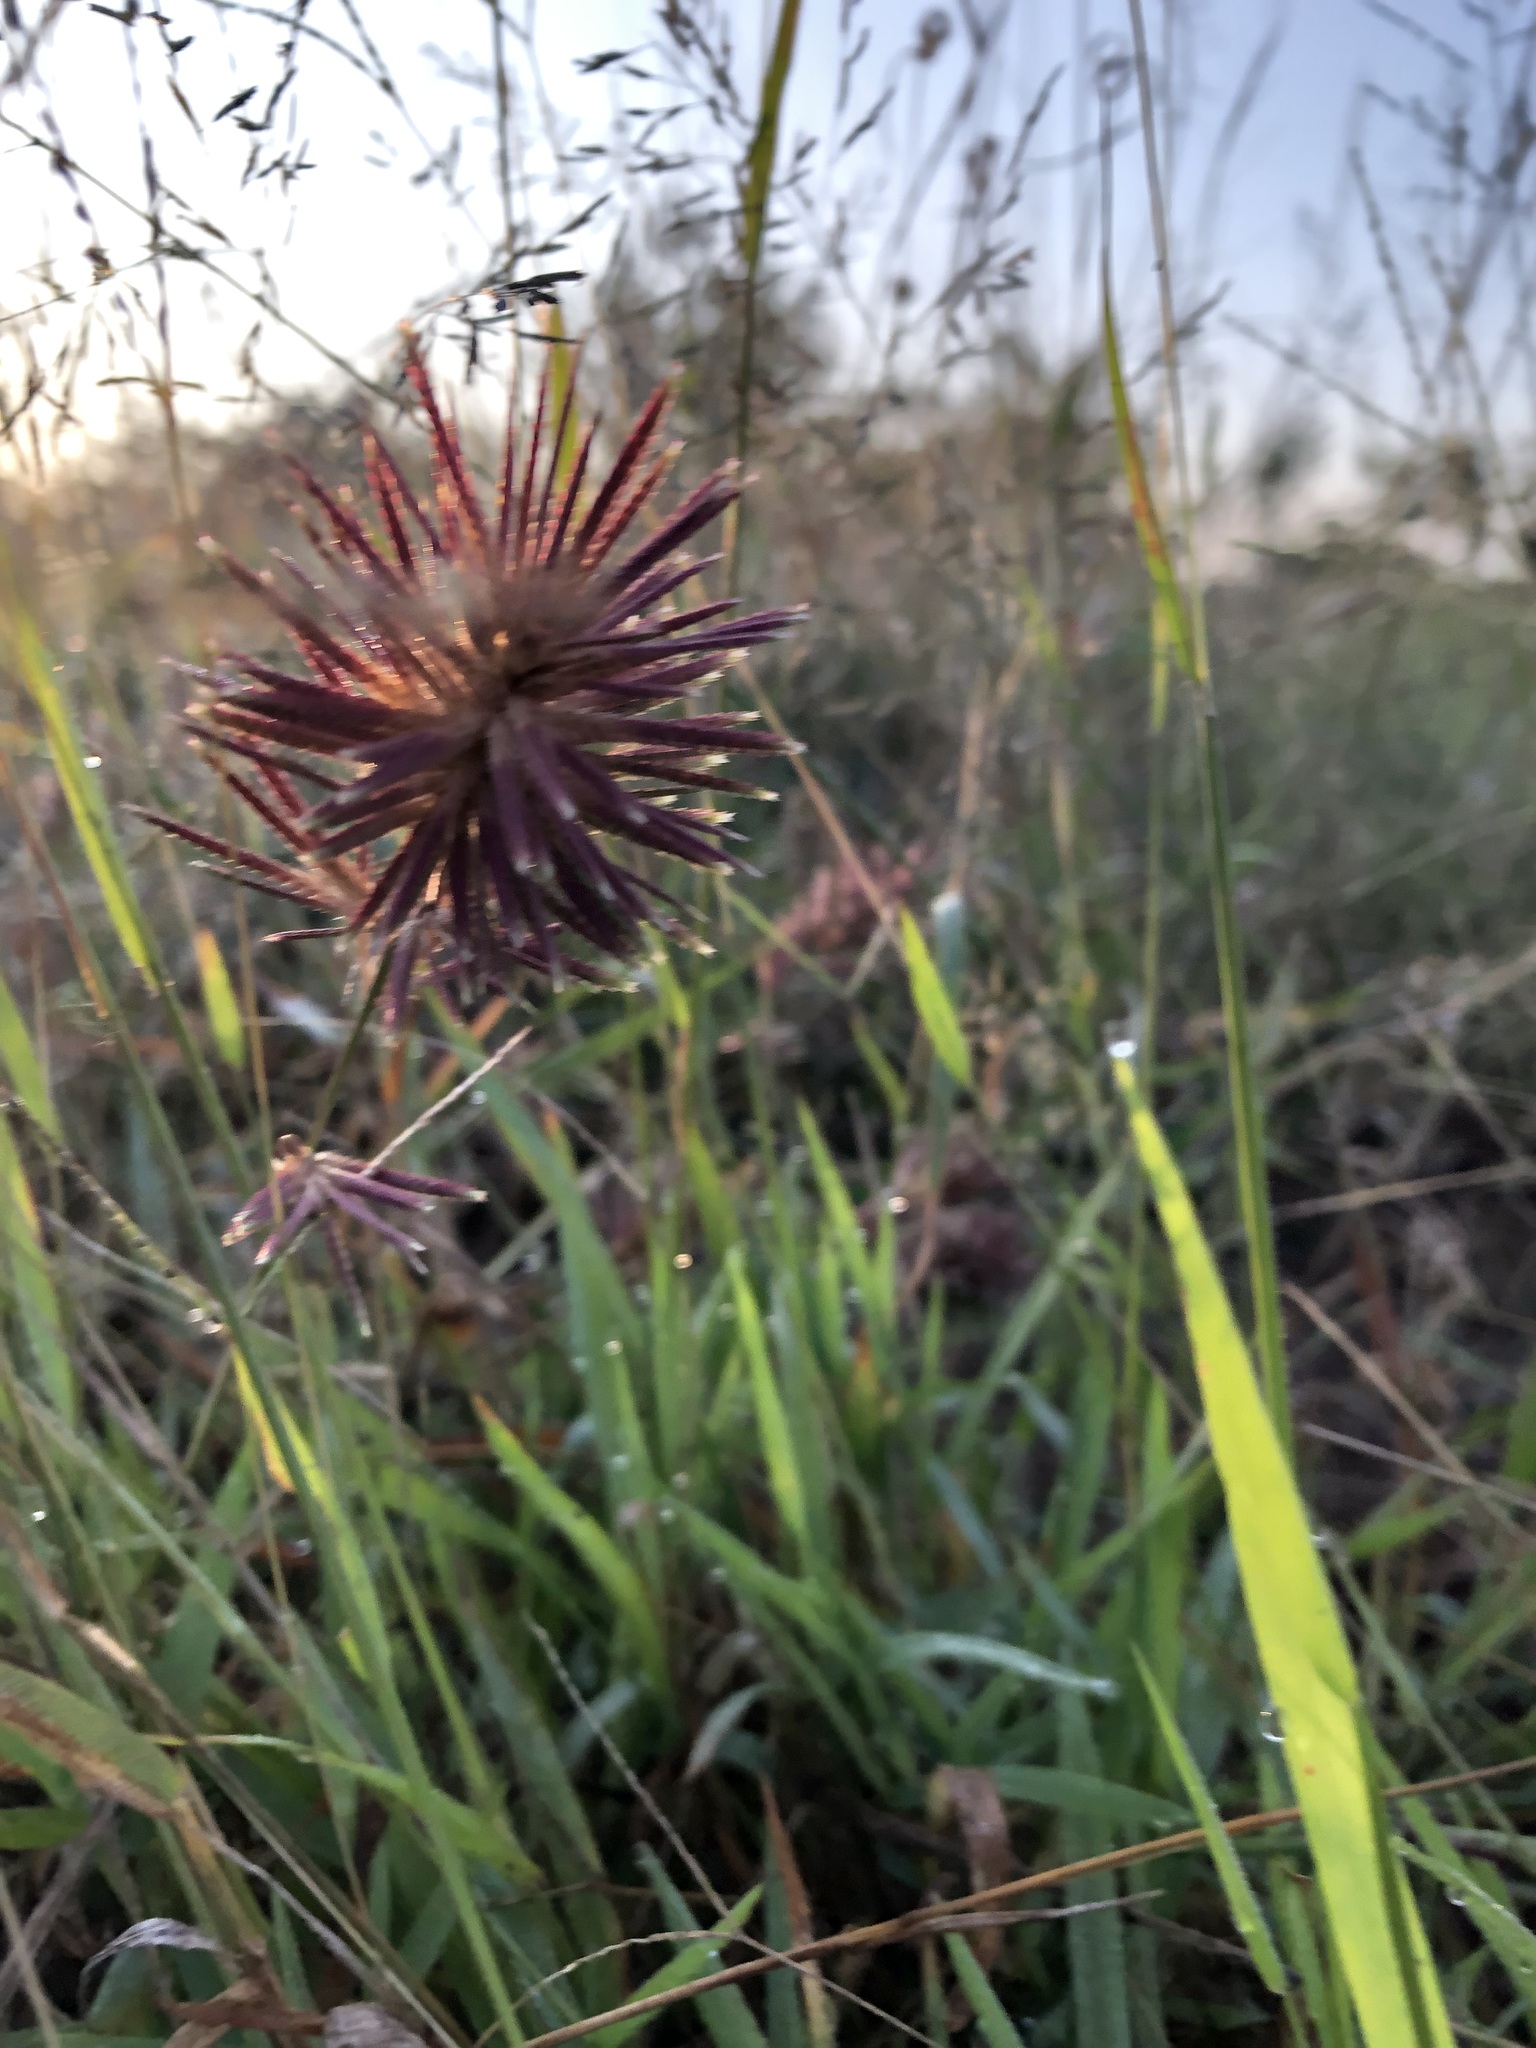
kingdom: Plantae
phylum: Tracheophyta
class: Liliopsida
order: Poales
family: Poaceae
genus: Eragrostis
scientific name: Eragrostis patens
